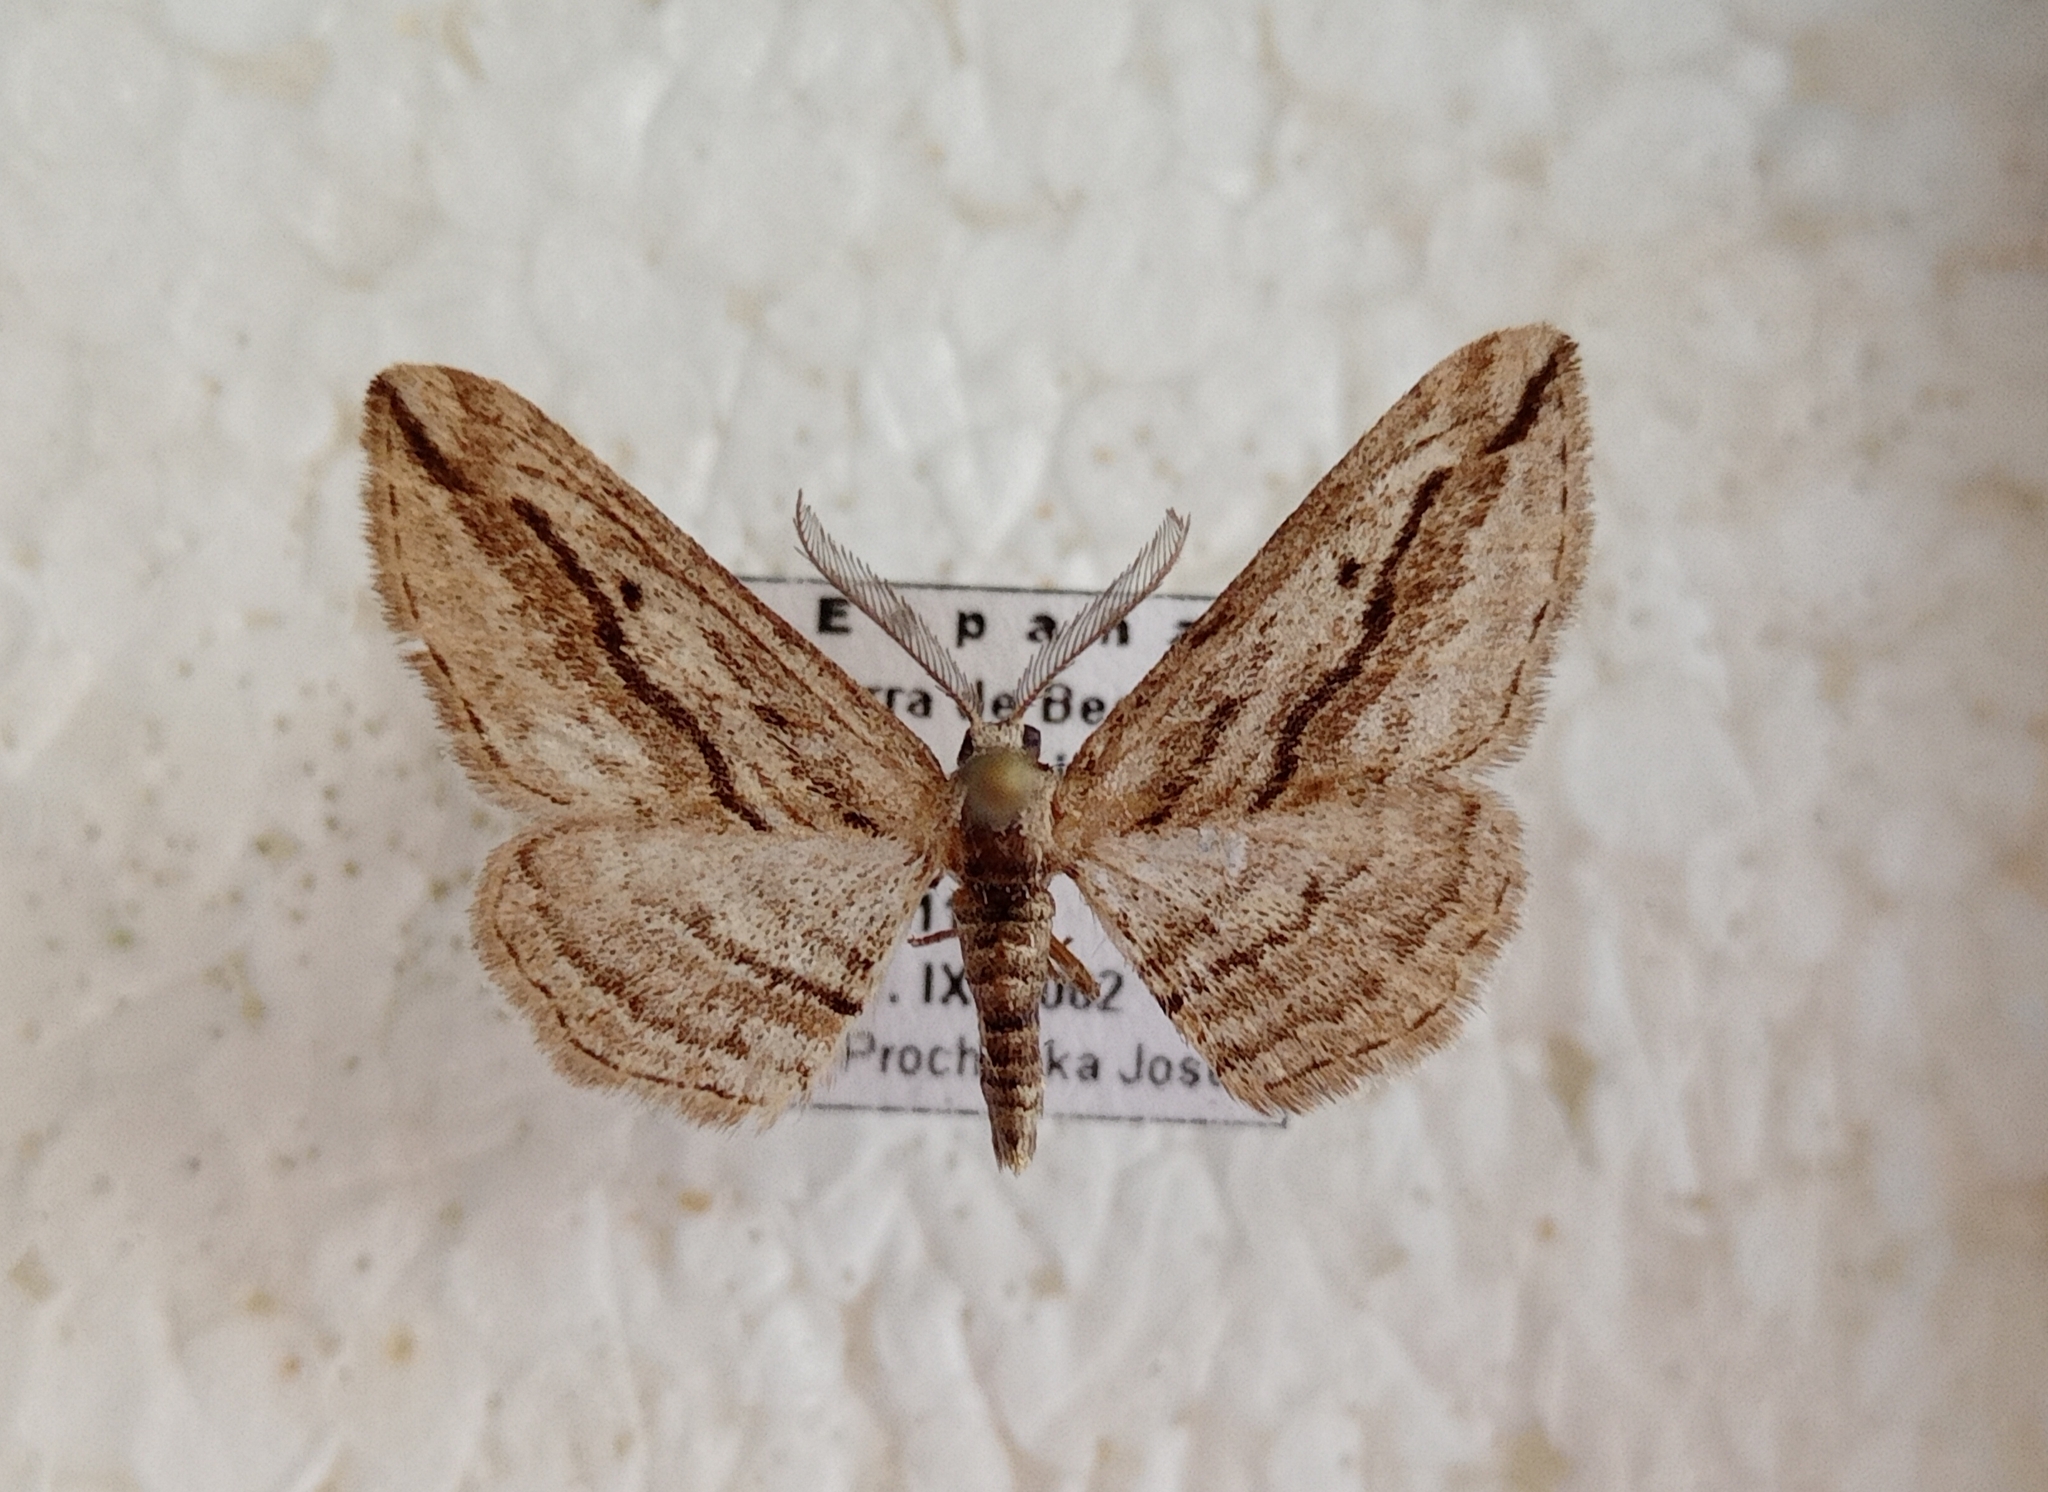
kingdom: Animalia
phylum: Arthropoda
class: Insecta
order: Lepidoptera
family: Geometridae
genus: Ecleora
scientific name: Ecleora solieraria
